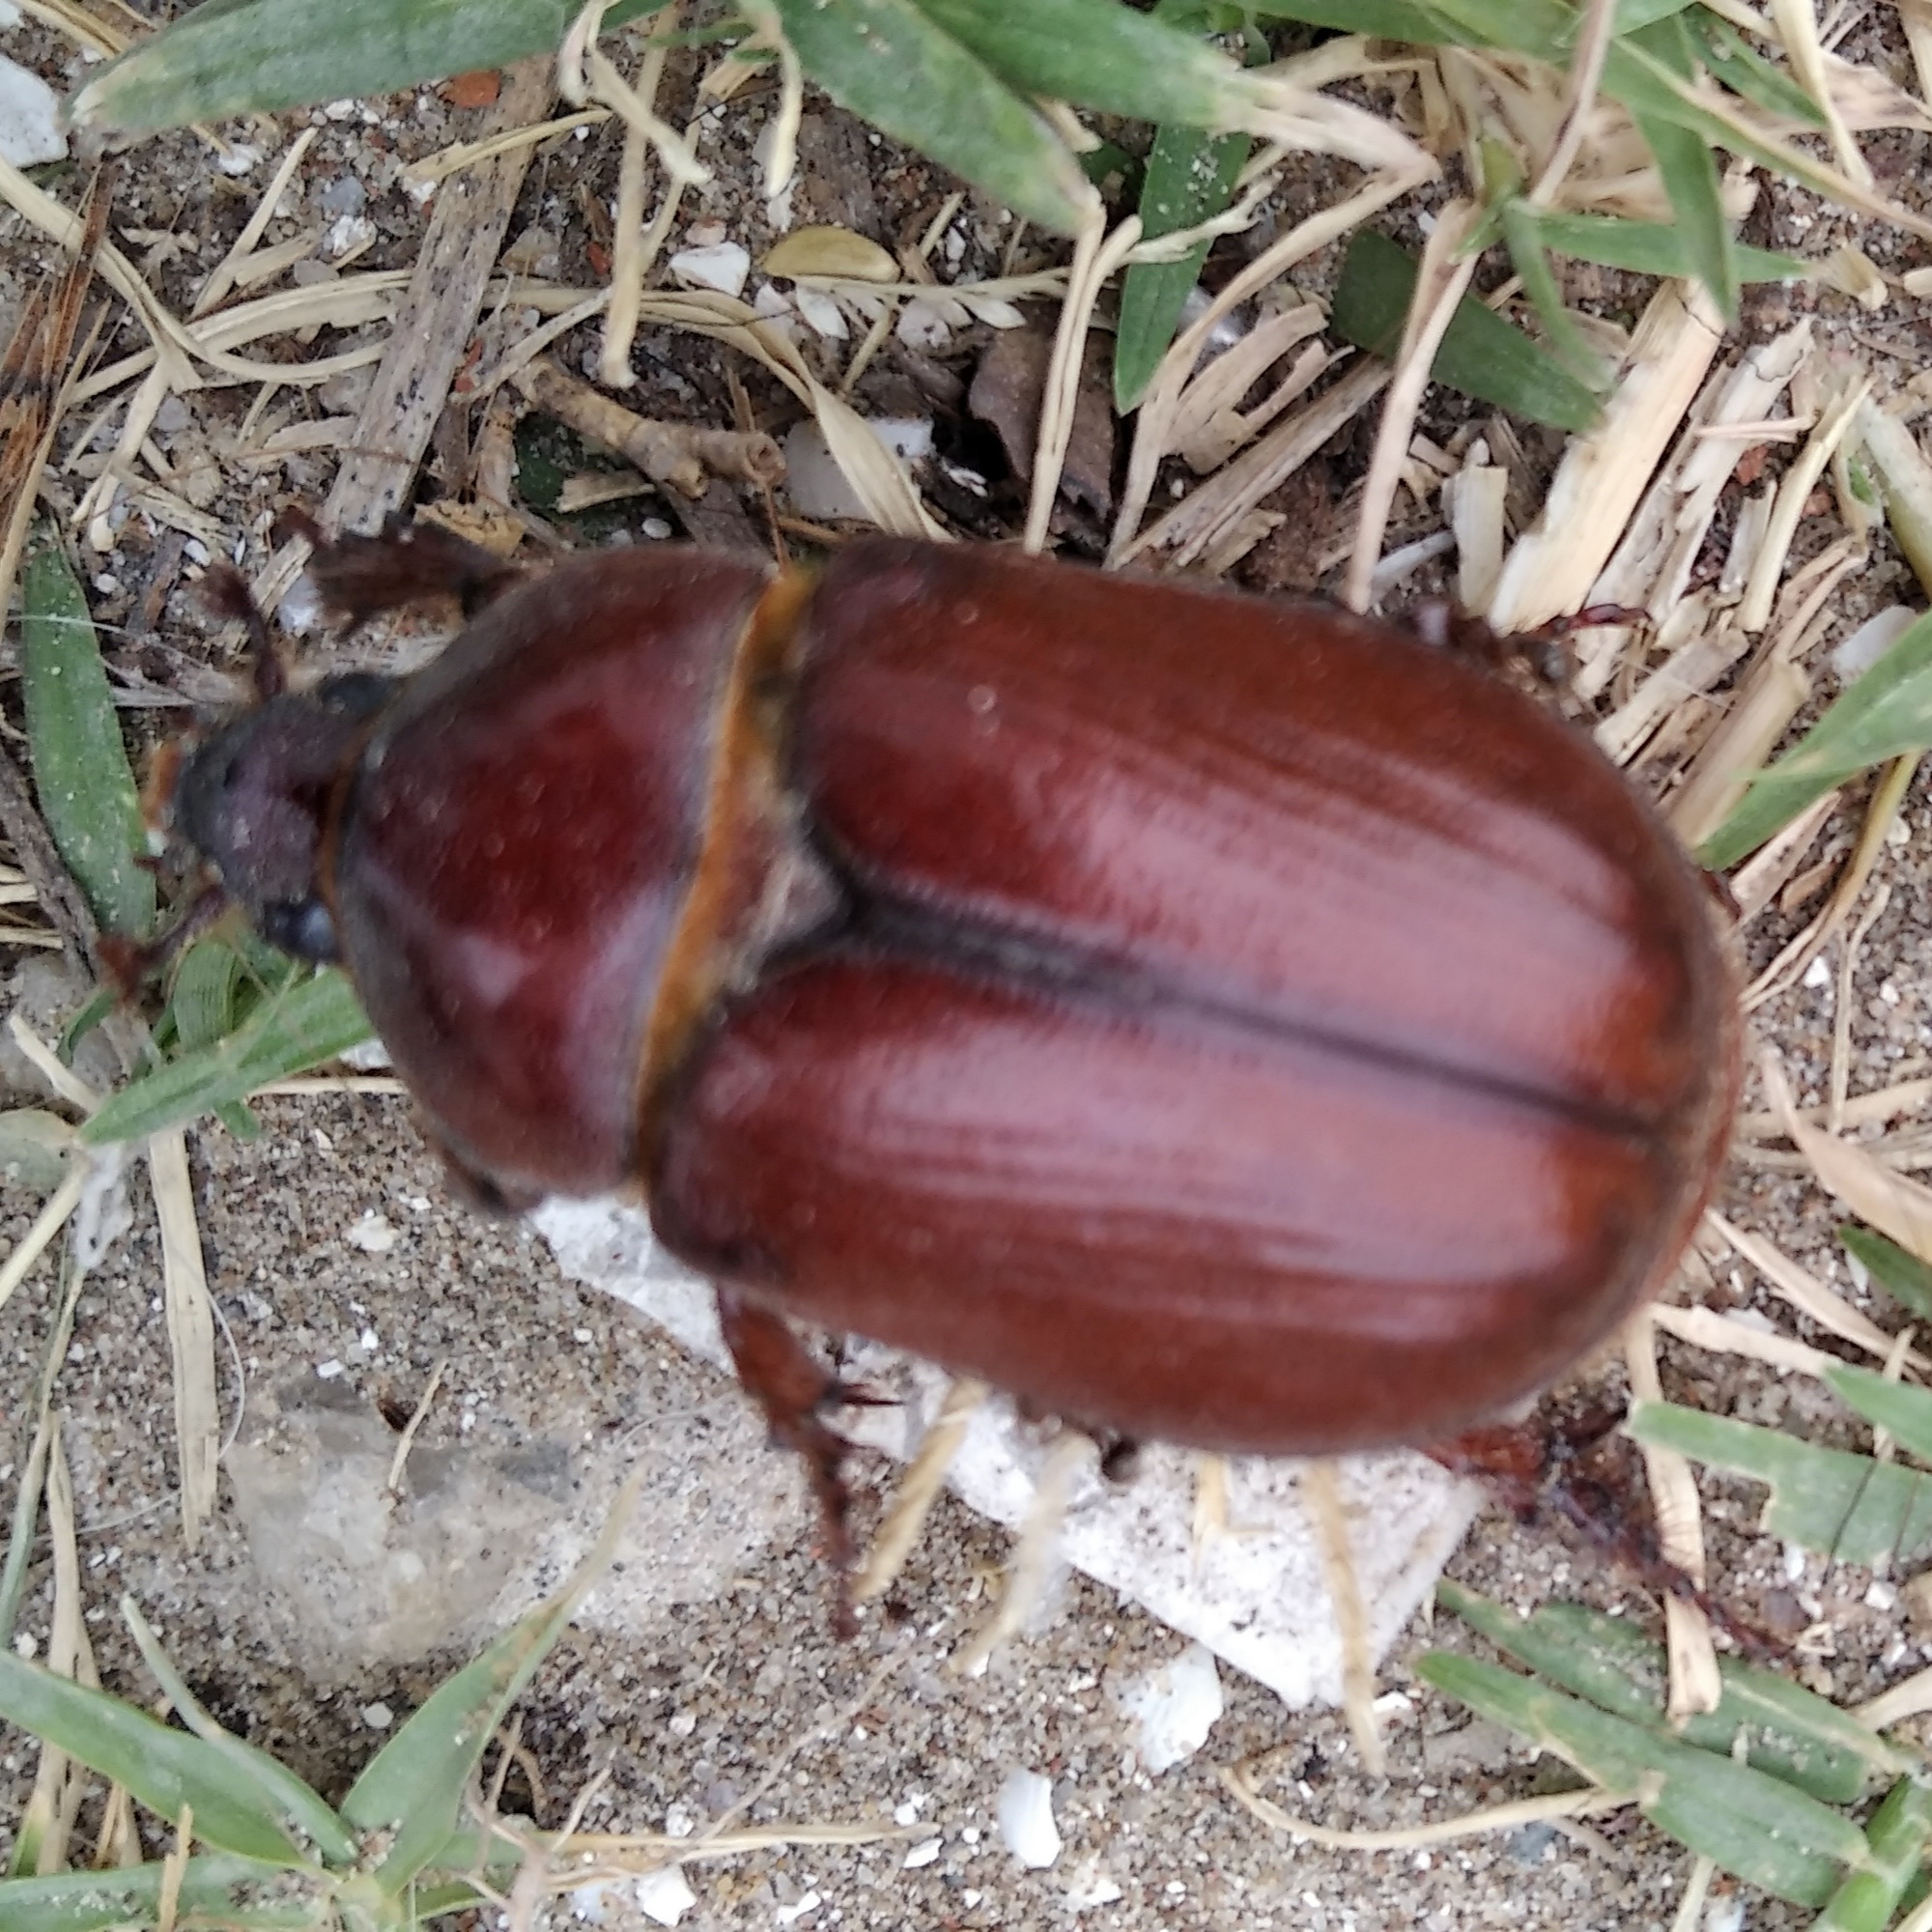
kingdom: Animalia
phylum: Arthropoda
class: Insecta
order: Coleoptera
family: Scarabaeidae
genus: Thronistes
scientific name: Thronistes rouxi
